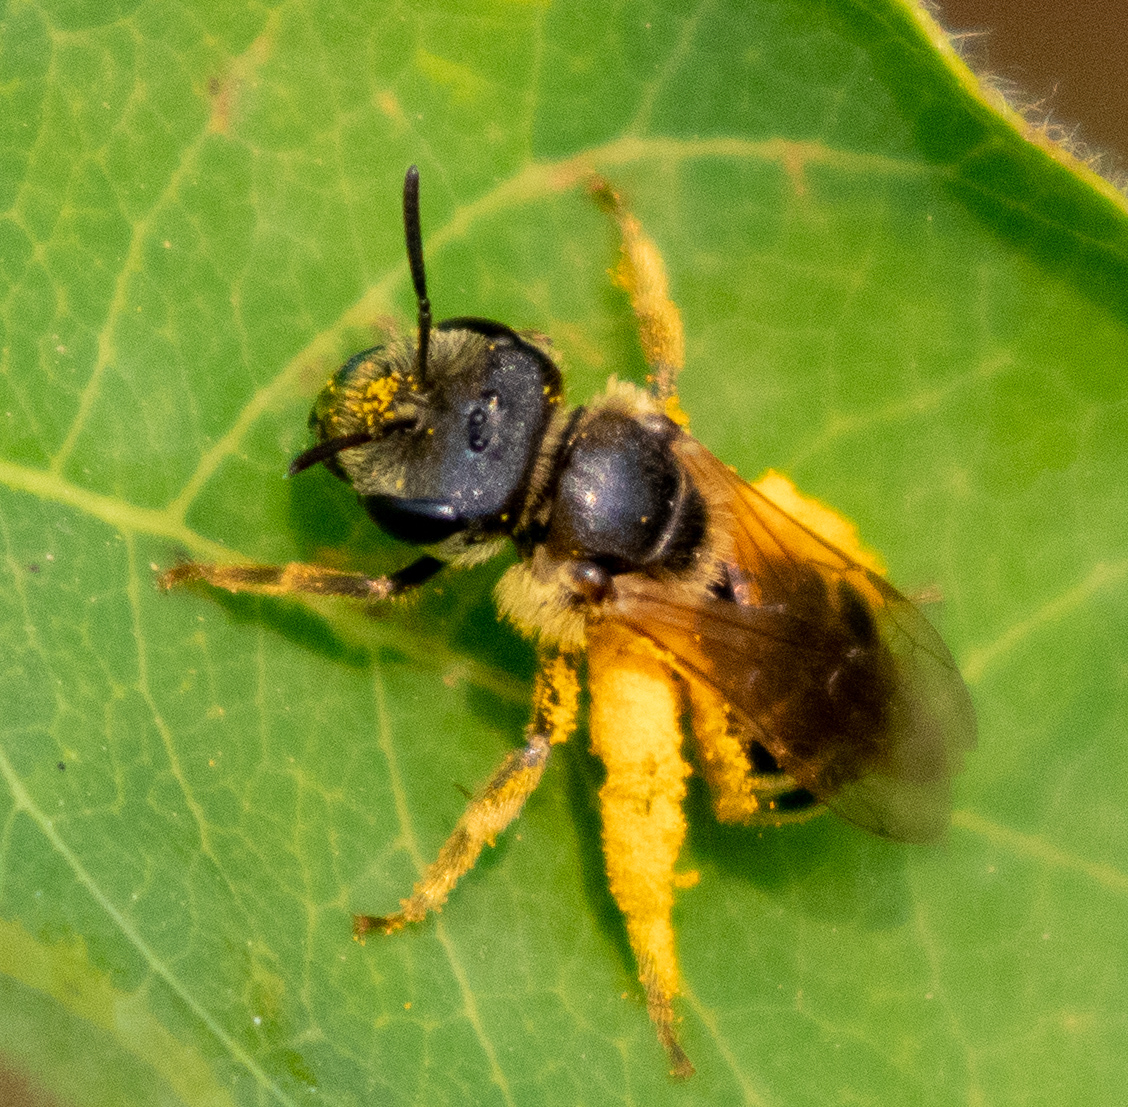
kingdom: Animalia
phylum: Arthropoda
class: Insecta
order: Hymenoptera
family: Halictidae
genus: Halictus
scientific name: Halictus ligatus
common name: Ligated furrow bee
